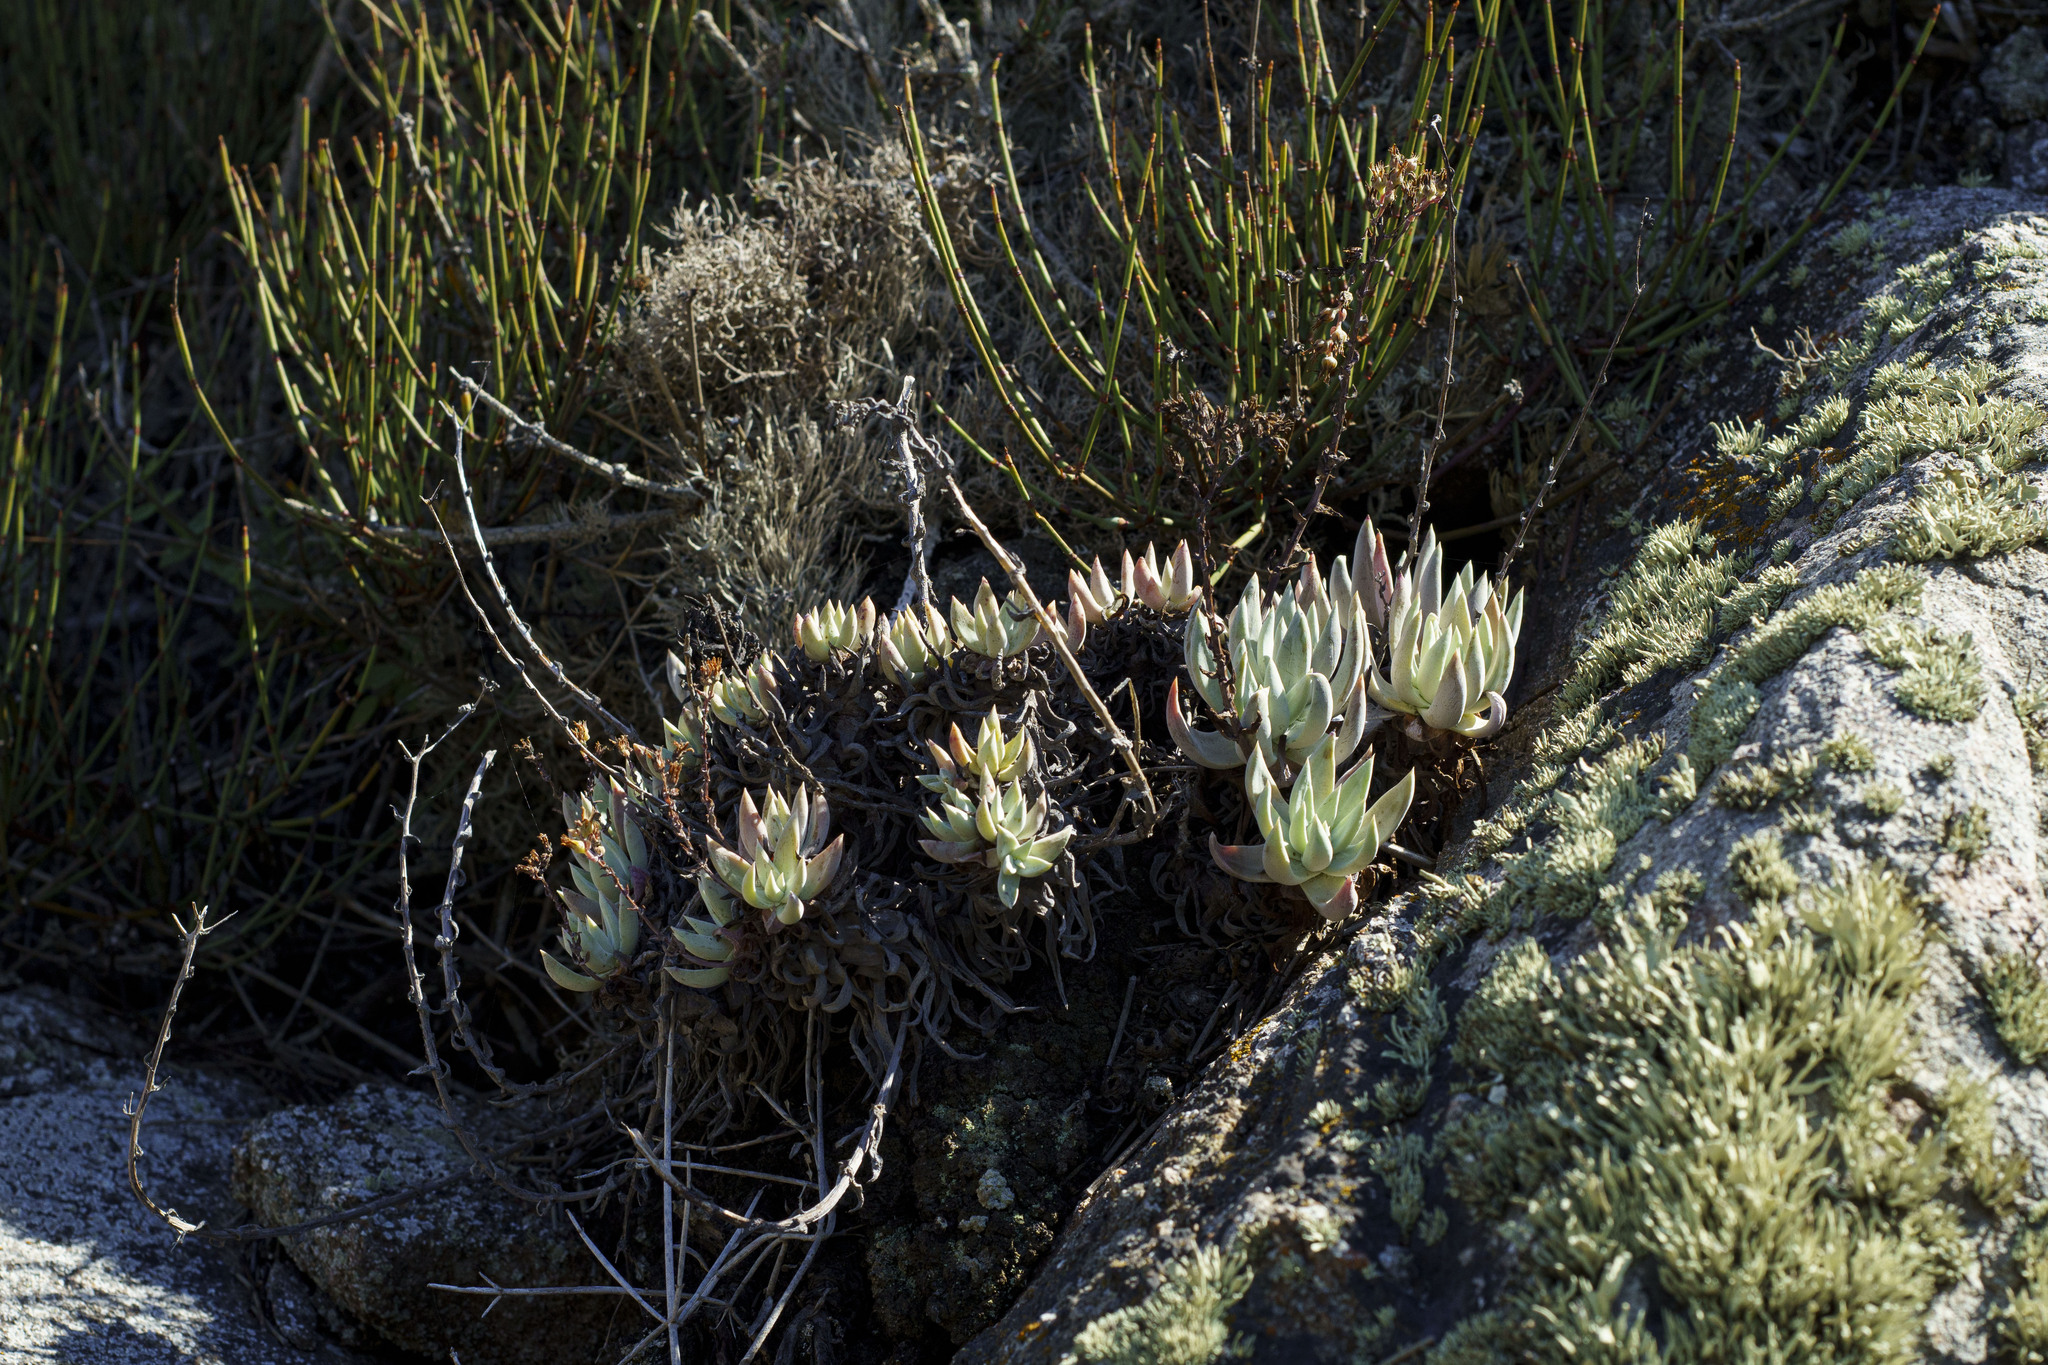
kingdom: Plantae
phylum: Tracheophyta
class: Magnoliopsida
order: Saxifragales
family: Crassulaceae
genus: Dudleya
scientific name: Dudleya campanulata
